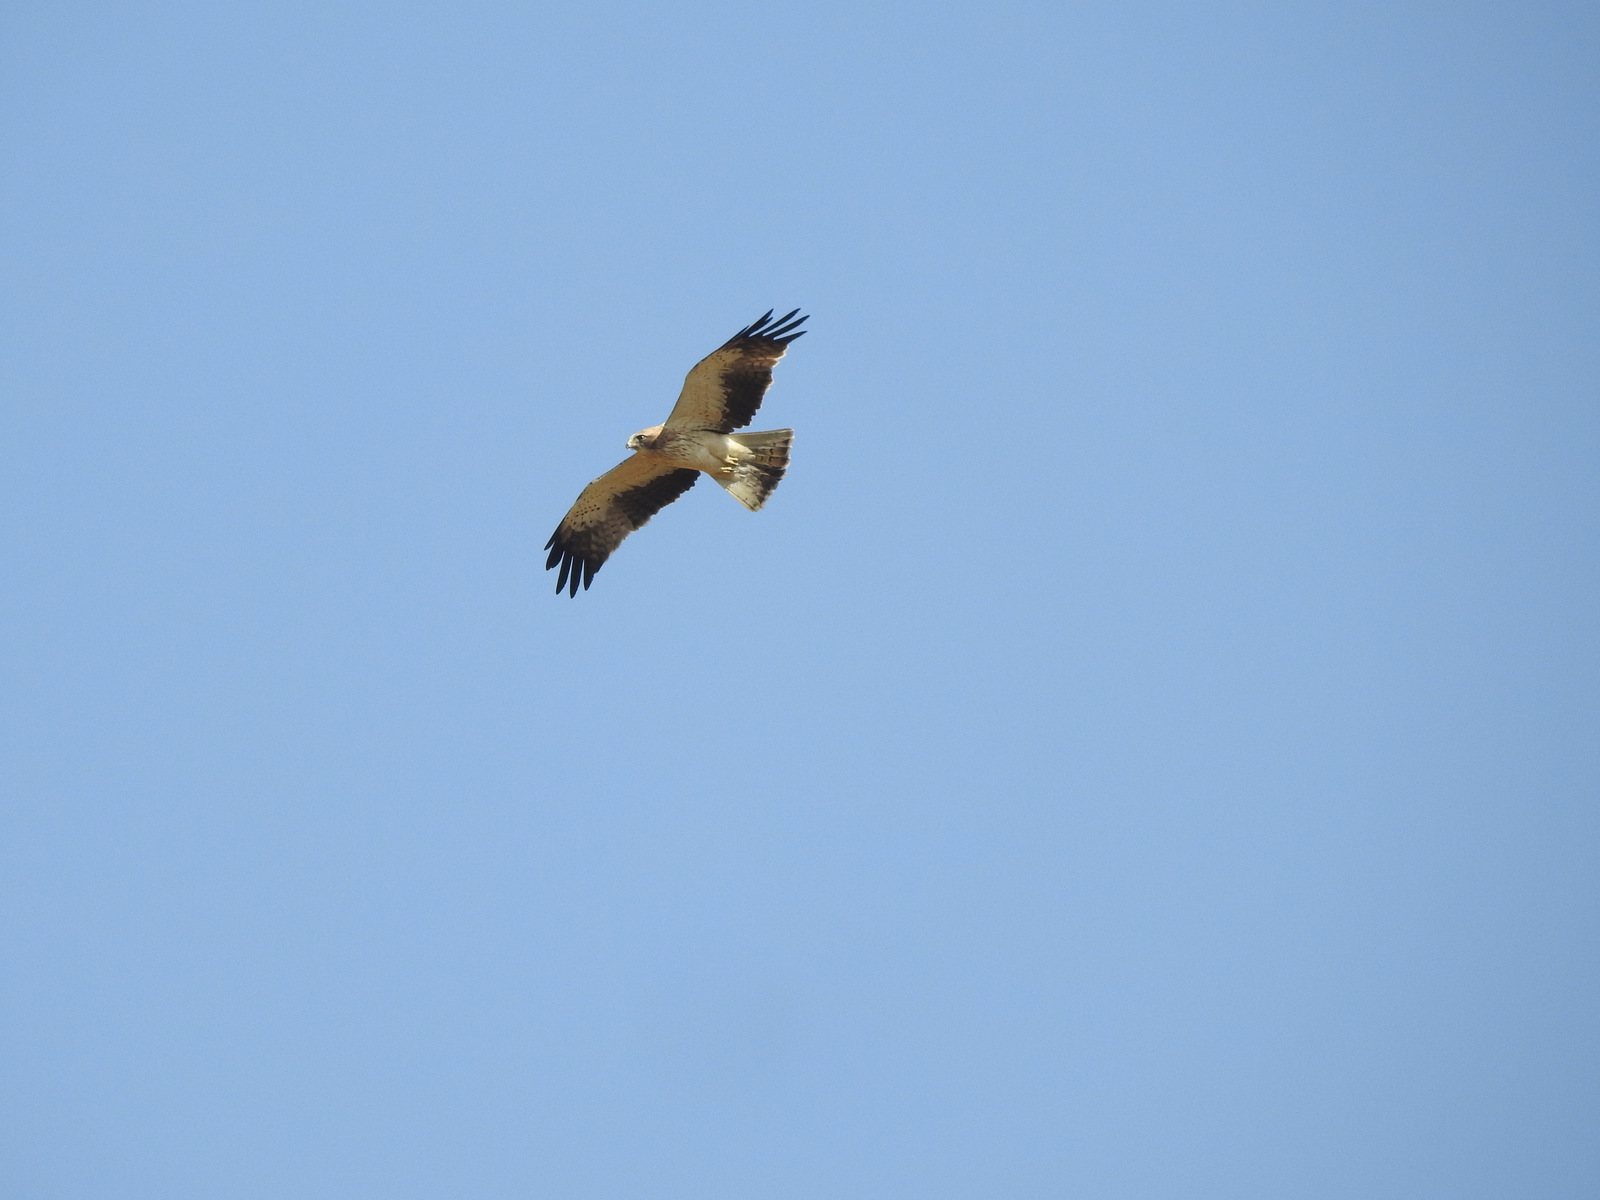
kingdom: Animalia
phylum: Chordata
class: Aves
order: Accipitriformes
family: Accipitridae
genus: Hieraaetus
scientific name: Hieraaetus pennatus
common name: Booted eagle
